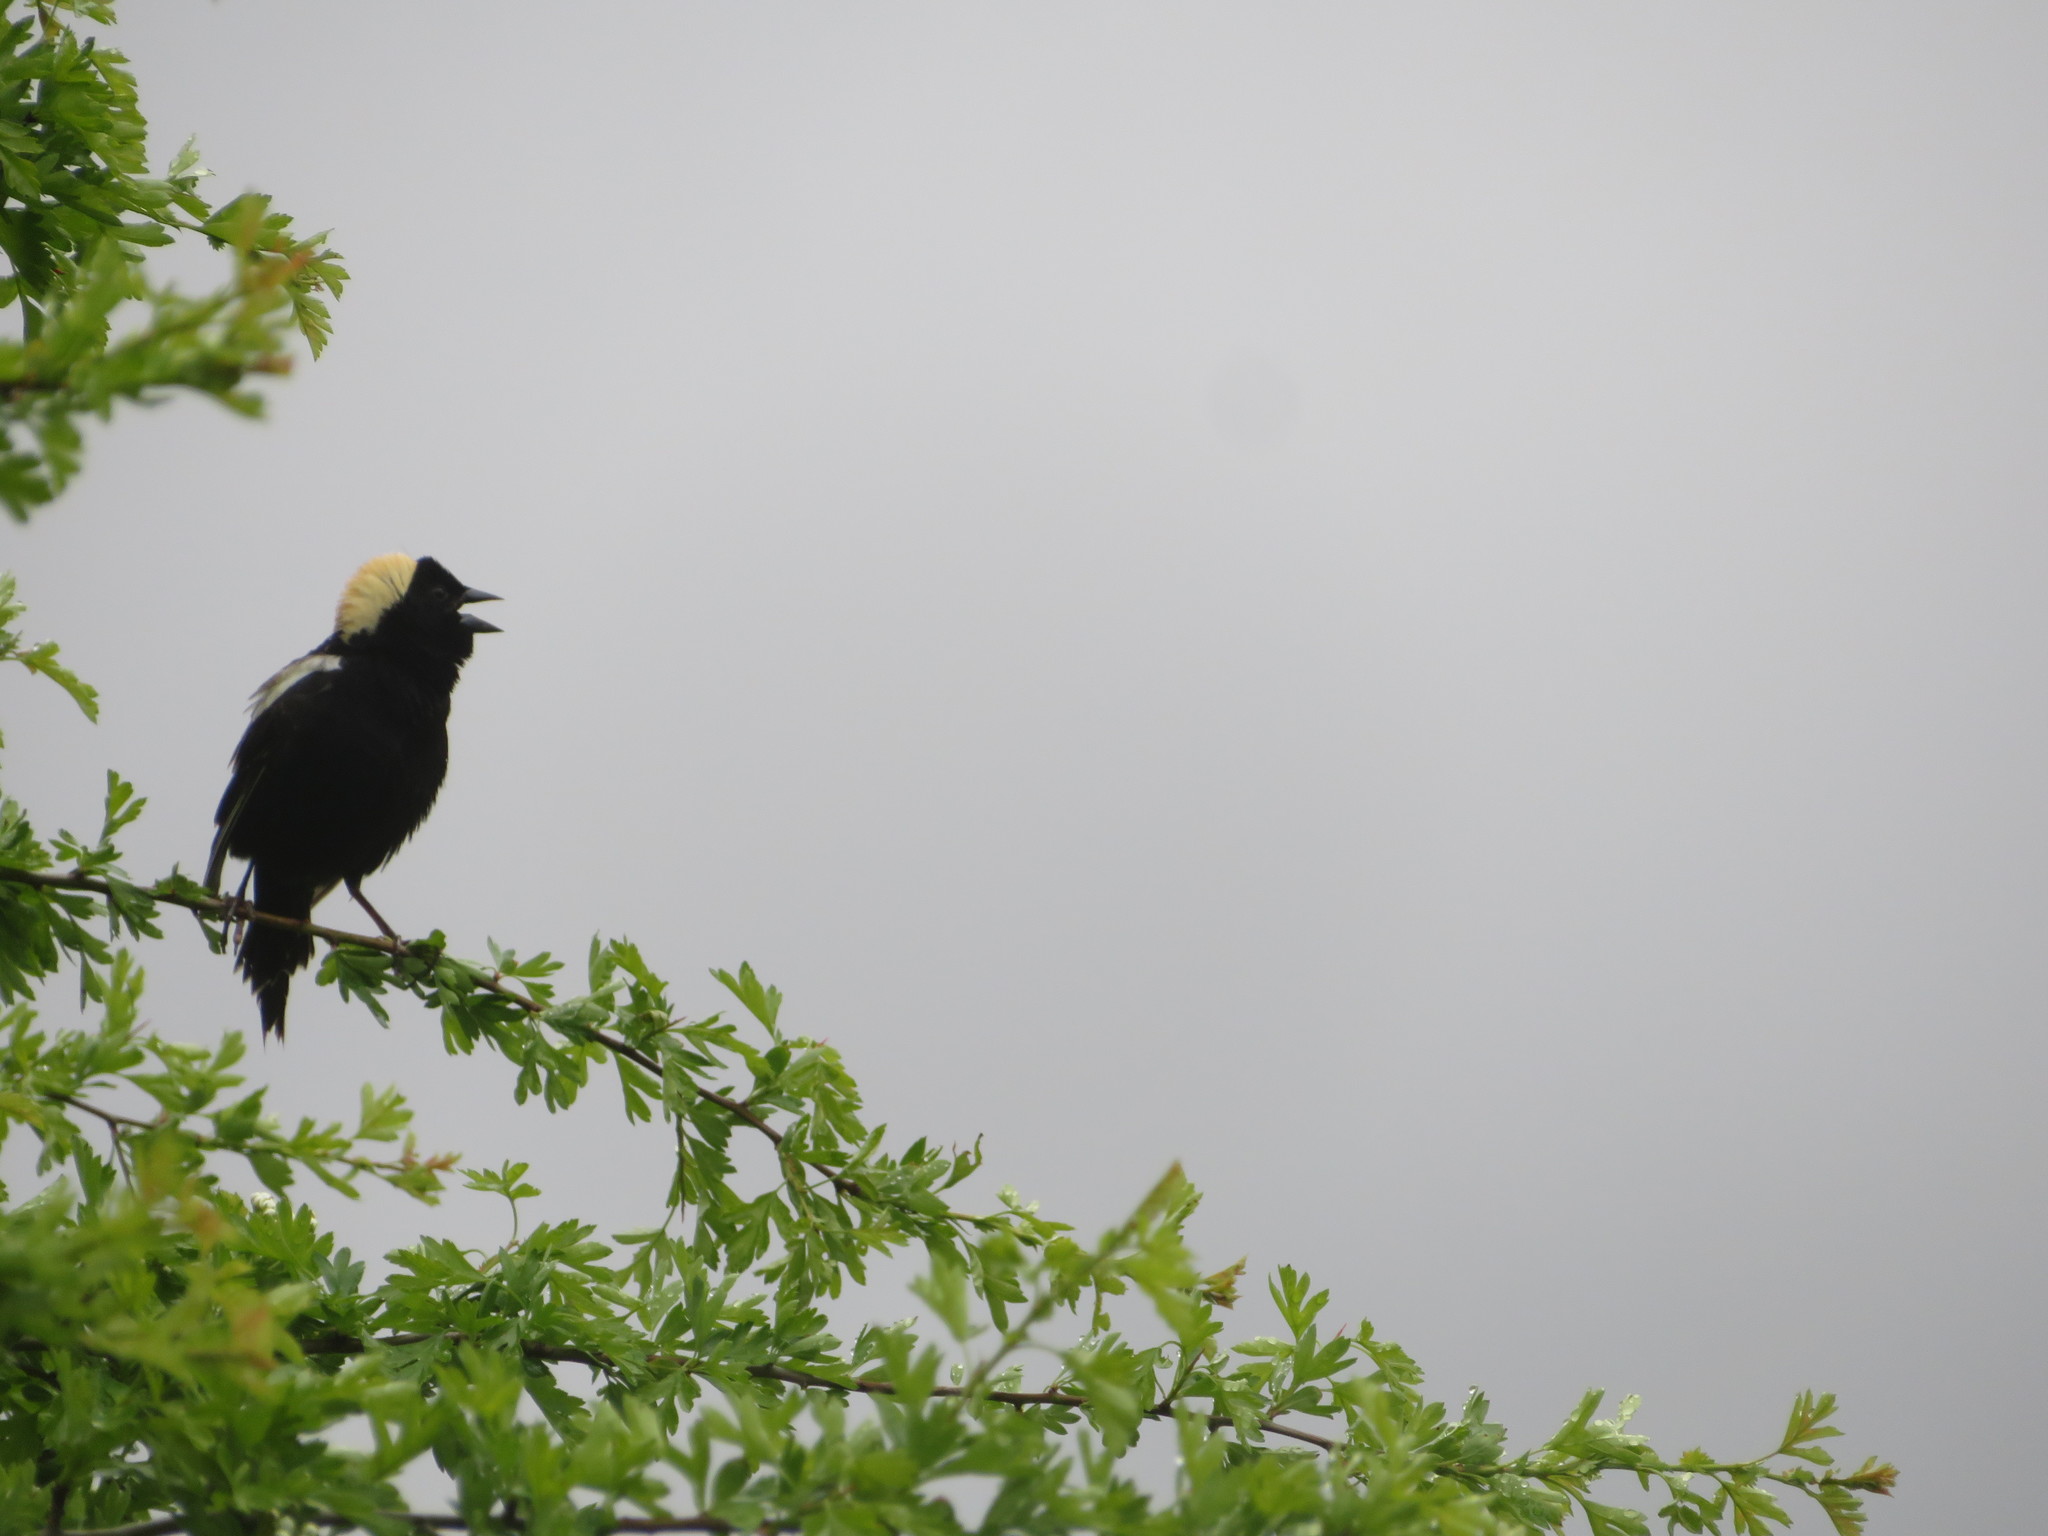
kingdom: Animalia
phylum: Chordata
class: Aves
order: Passeriformes
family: Icteridae
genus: Dolichonyx
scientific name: Dolichonyx oryzivorus
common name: Bobolink
